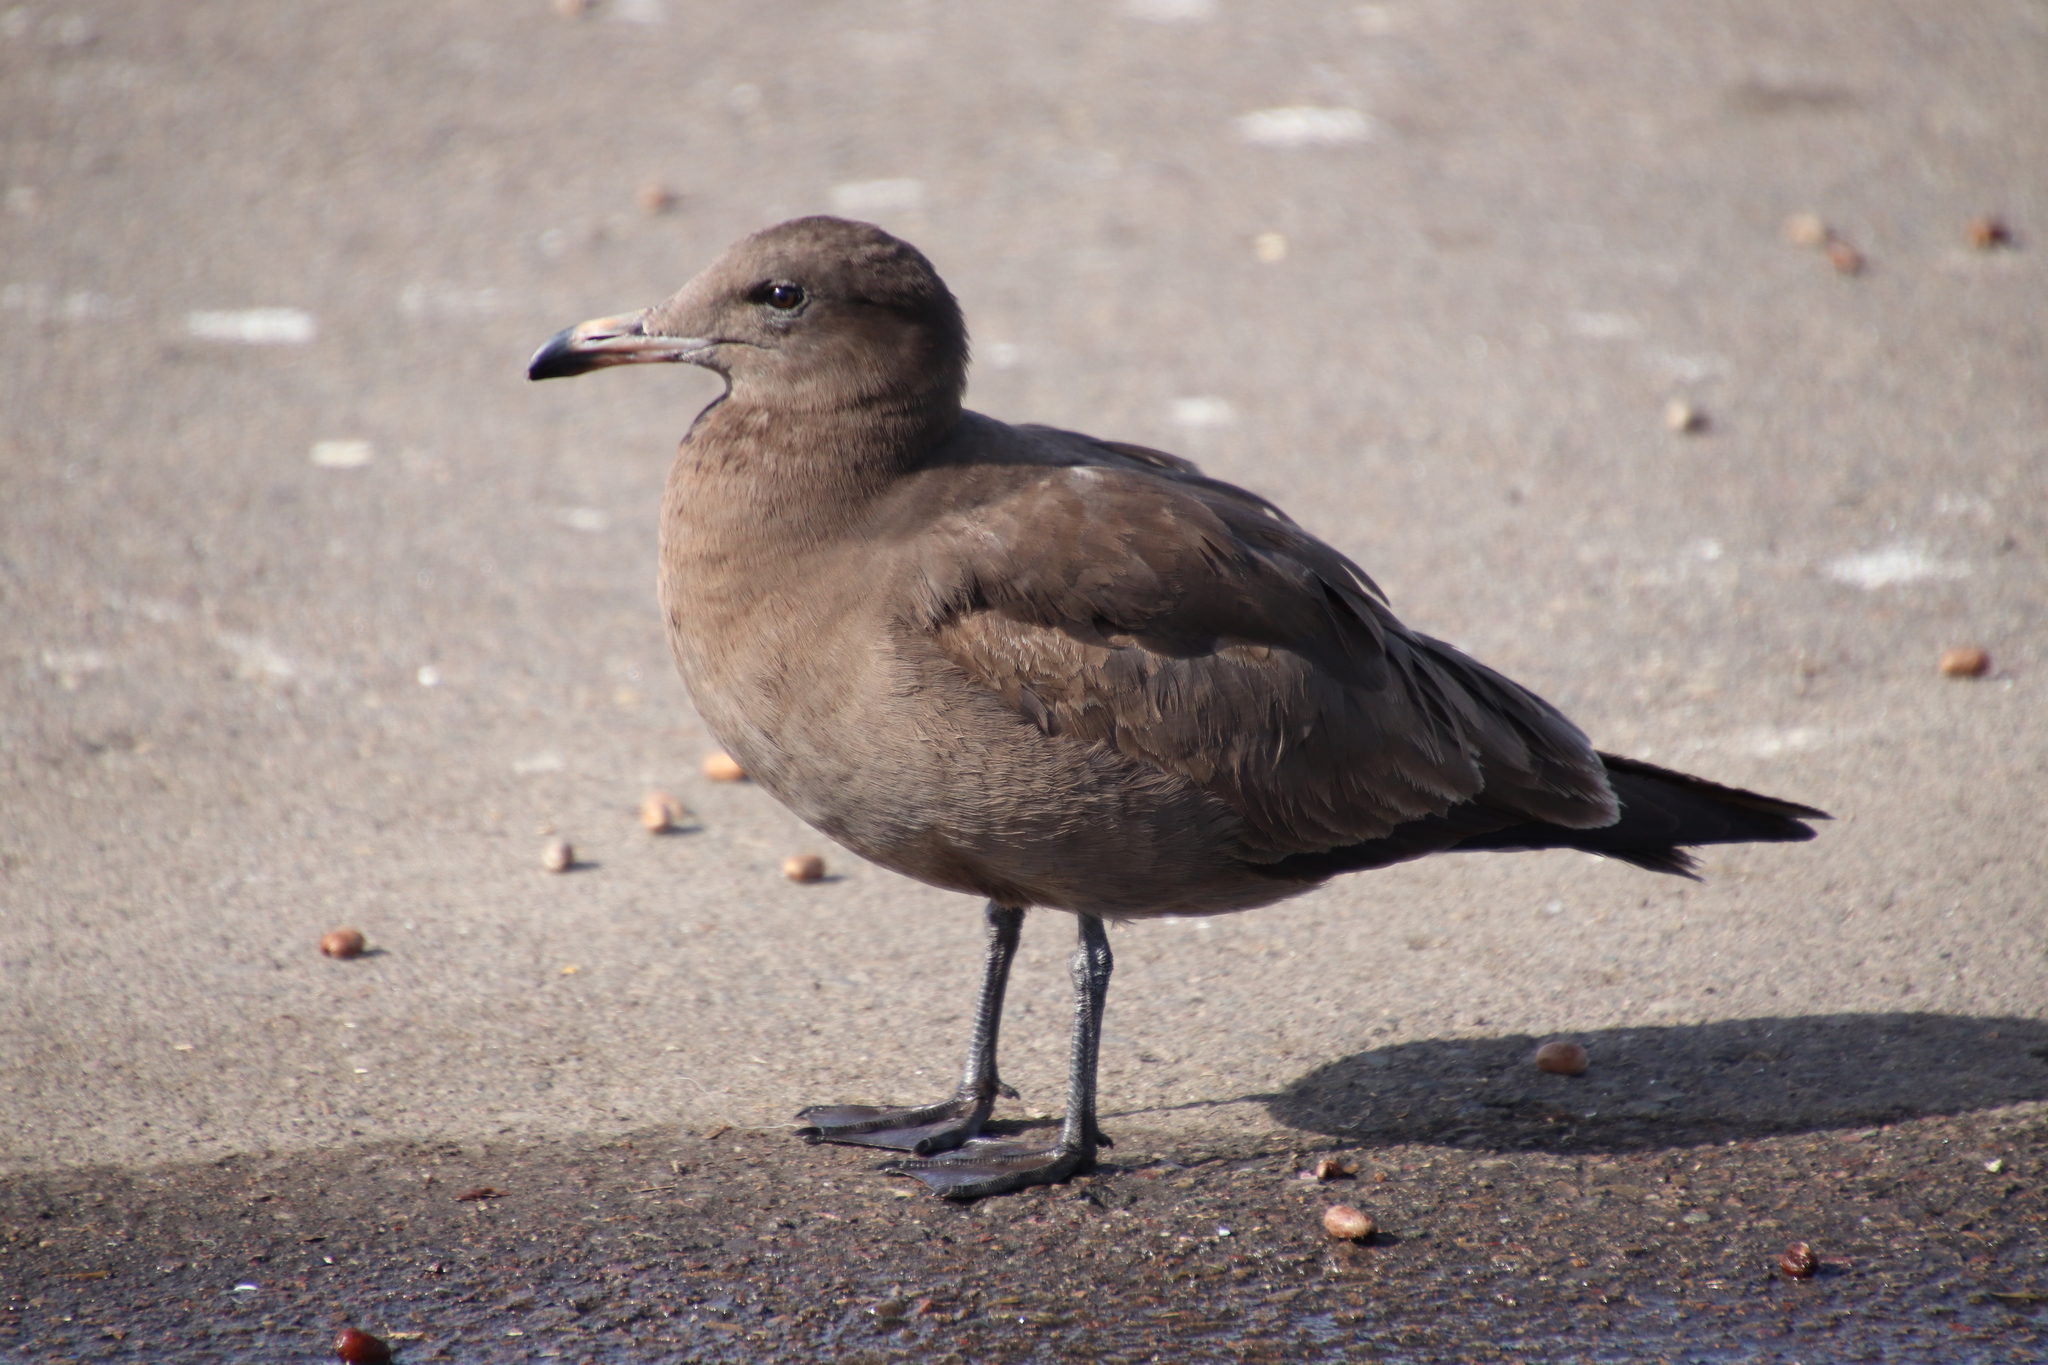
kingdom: Animalia
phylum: Chordata
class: Aves
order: Charadriiformes
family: Laridae
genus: Larus
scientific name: Larus heermanni
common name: Heermann's gull
